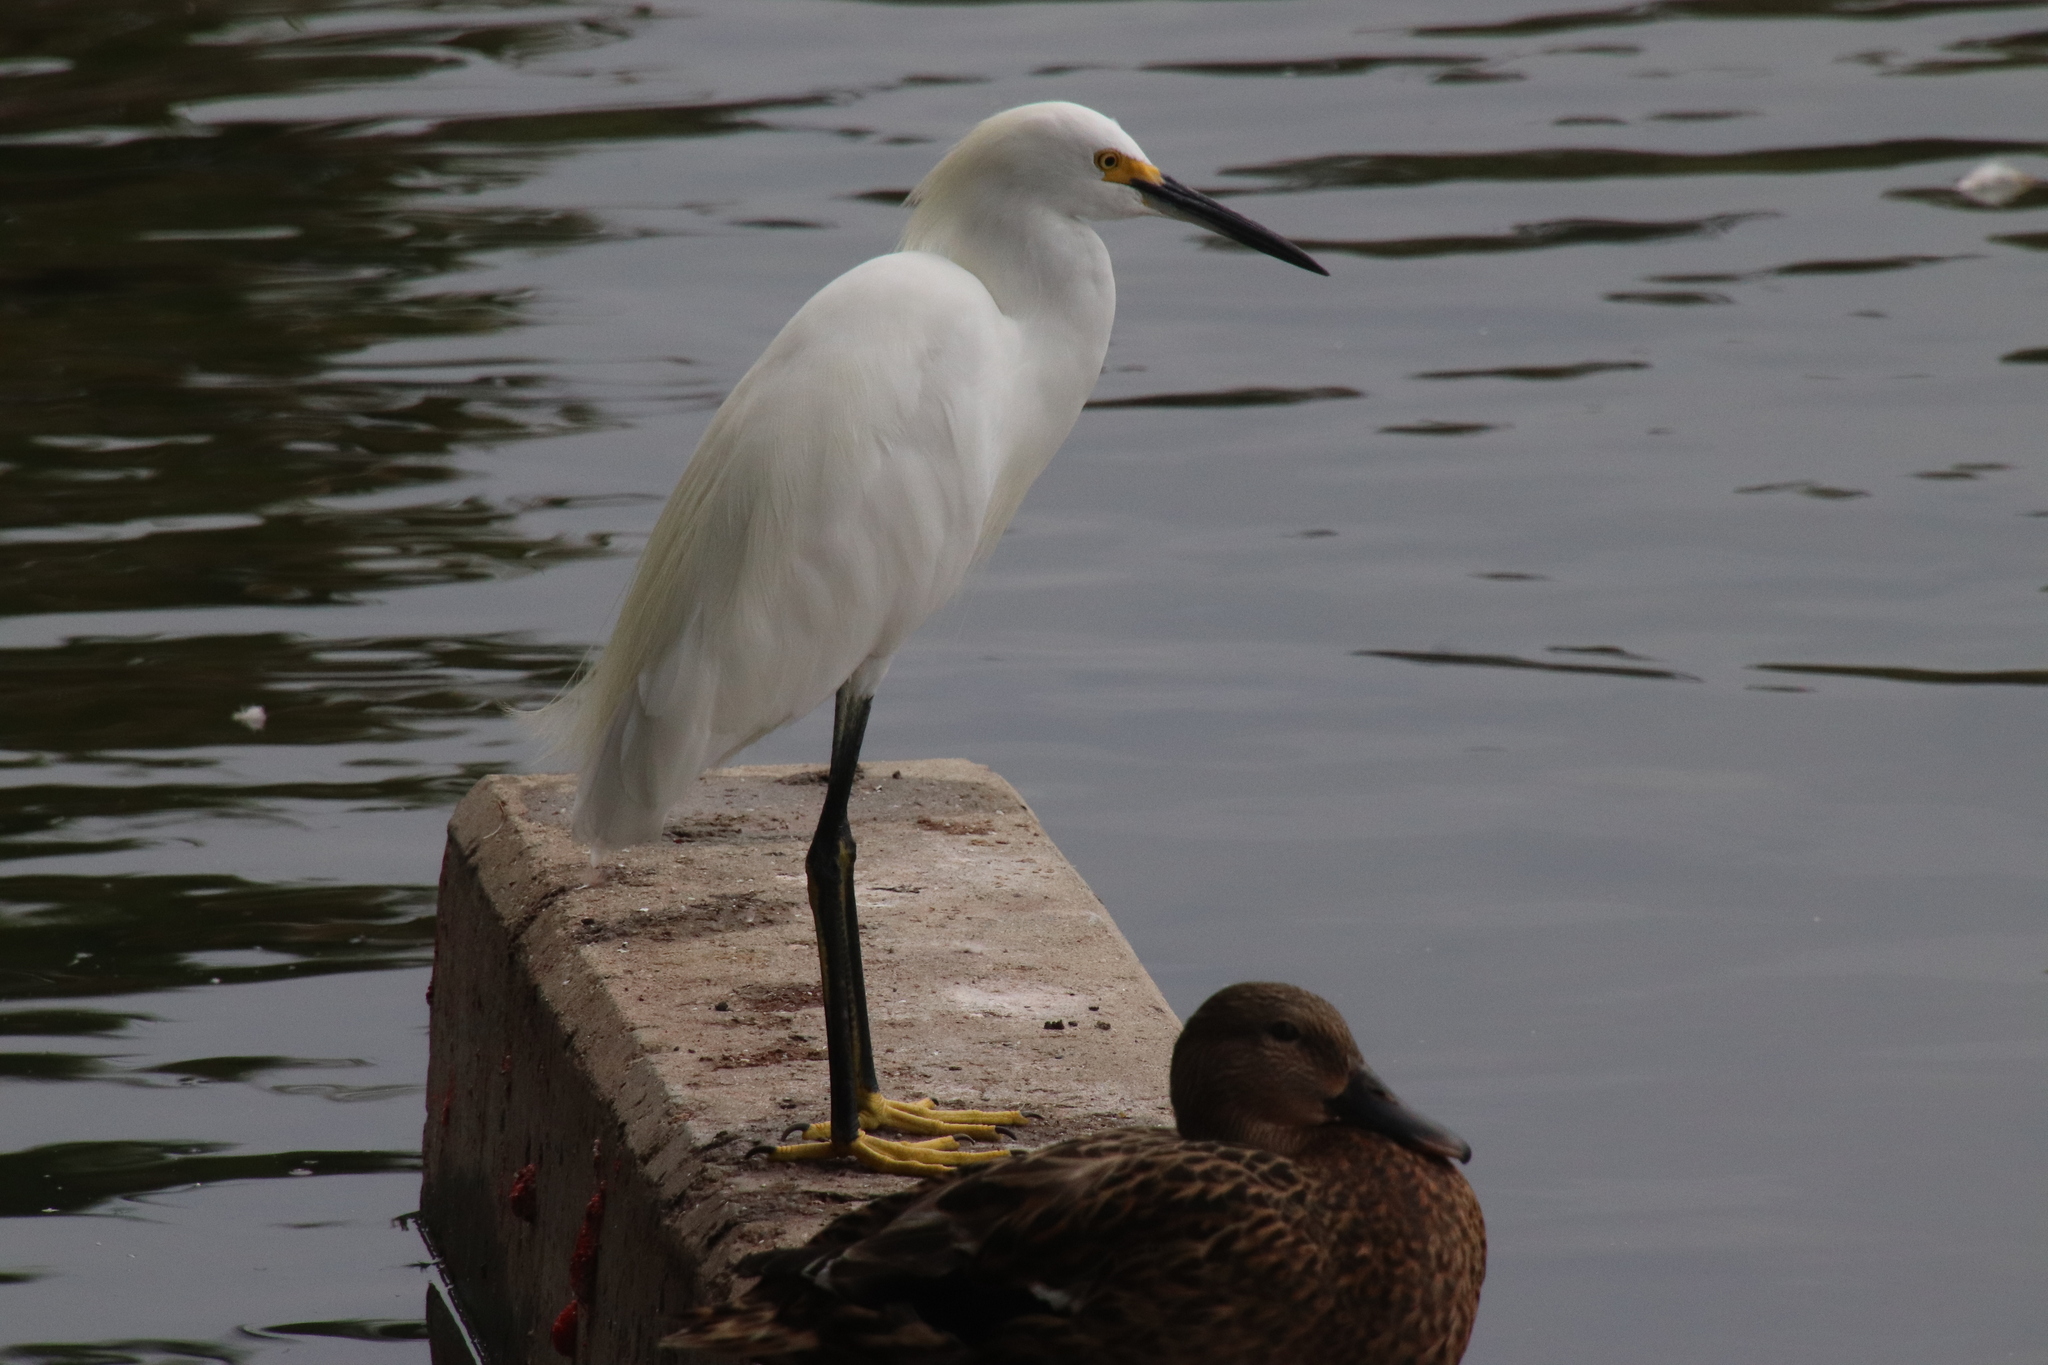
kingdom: Animalia
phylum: Chordata
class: Aves
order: Pelecaniformes
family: Ardeidae
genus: Egretta
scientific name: Egretta thula
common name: Snowy egret
